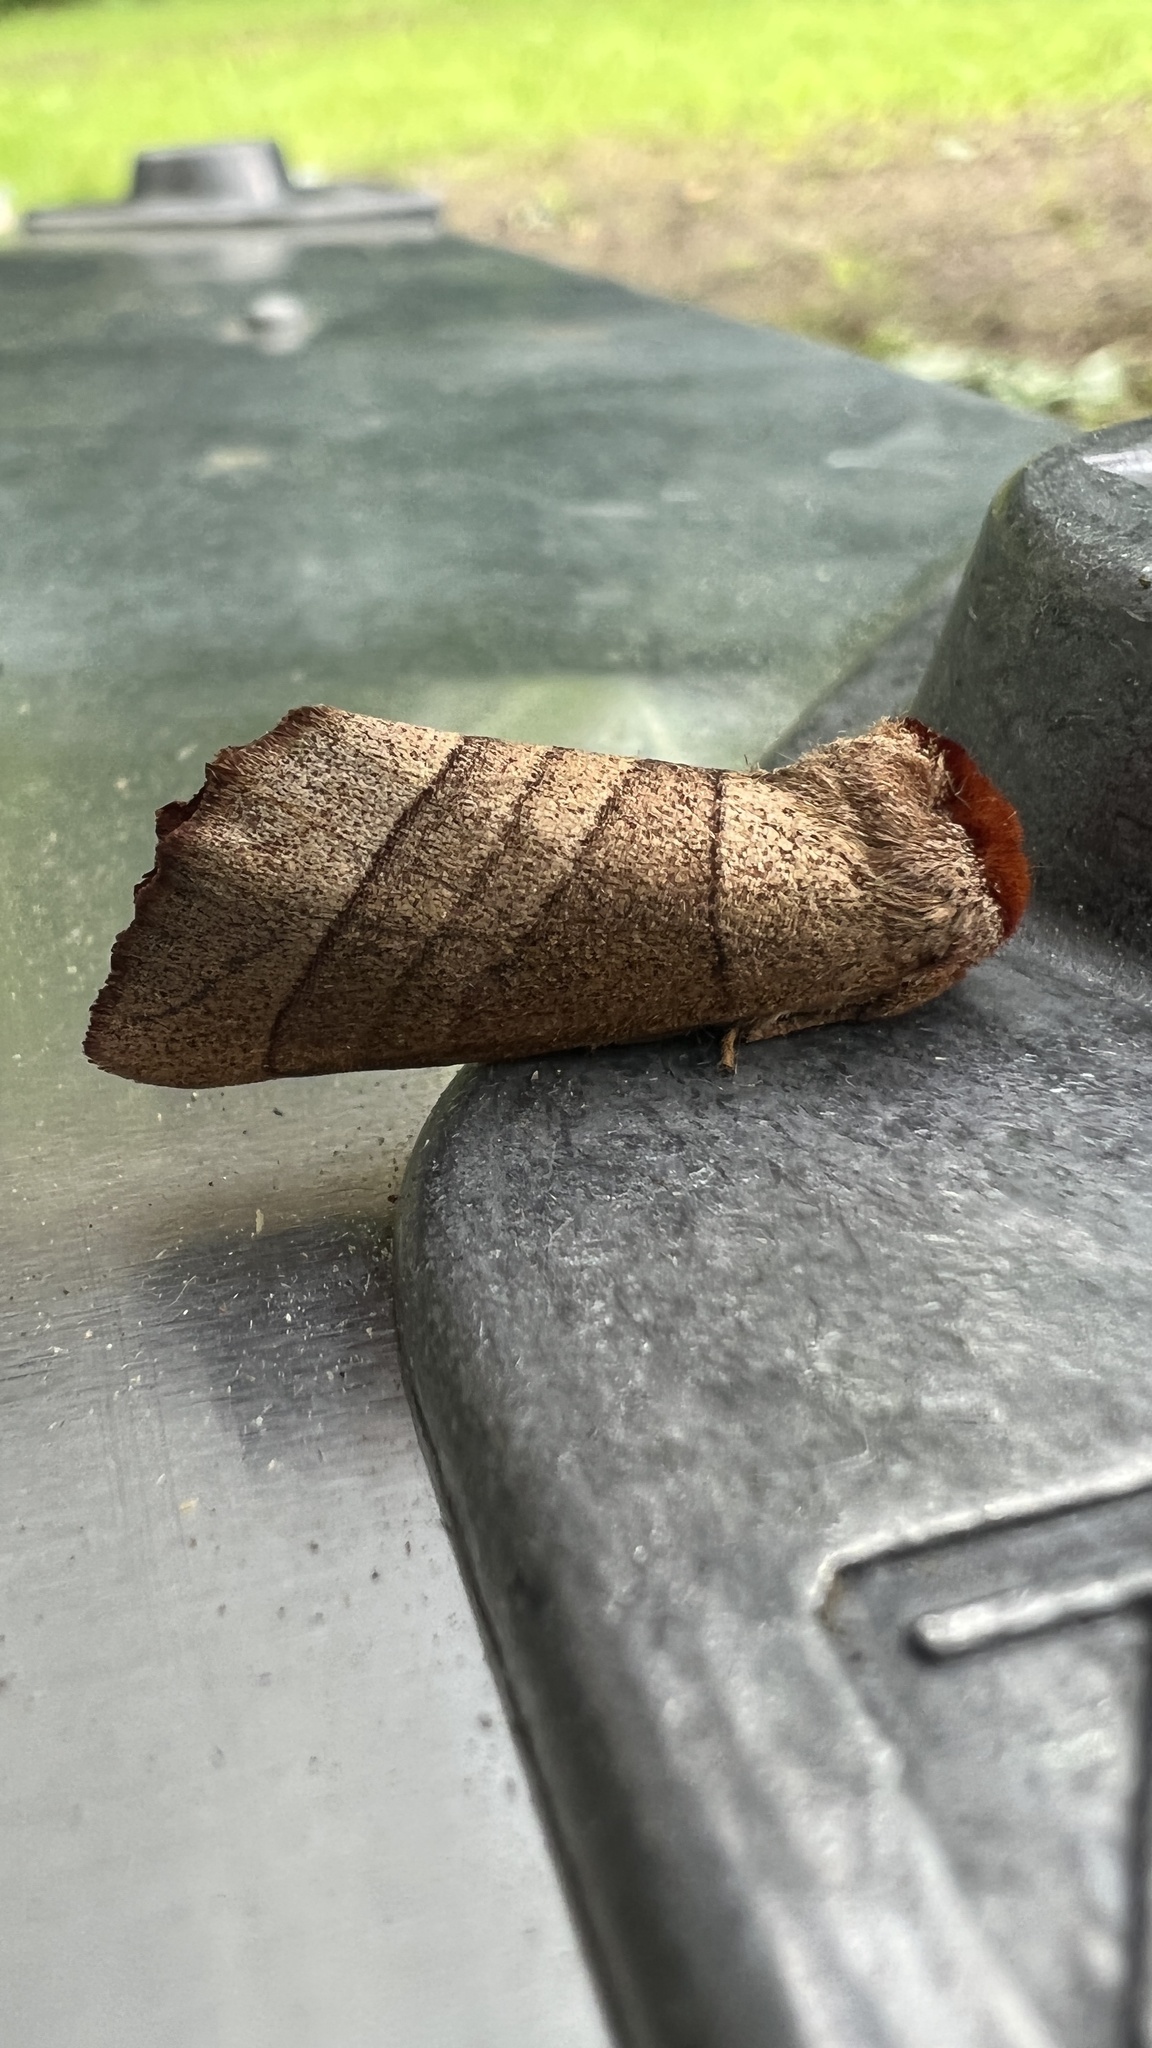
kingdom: Animalia
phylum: Arthropoda
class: Insecta
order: Lepidoptera
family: Notodontidae
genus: Datana
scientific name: Datana ministra
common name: Yellow-necked caterpillar moth
